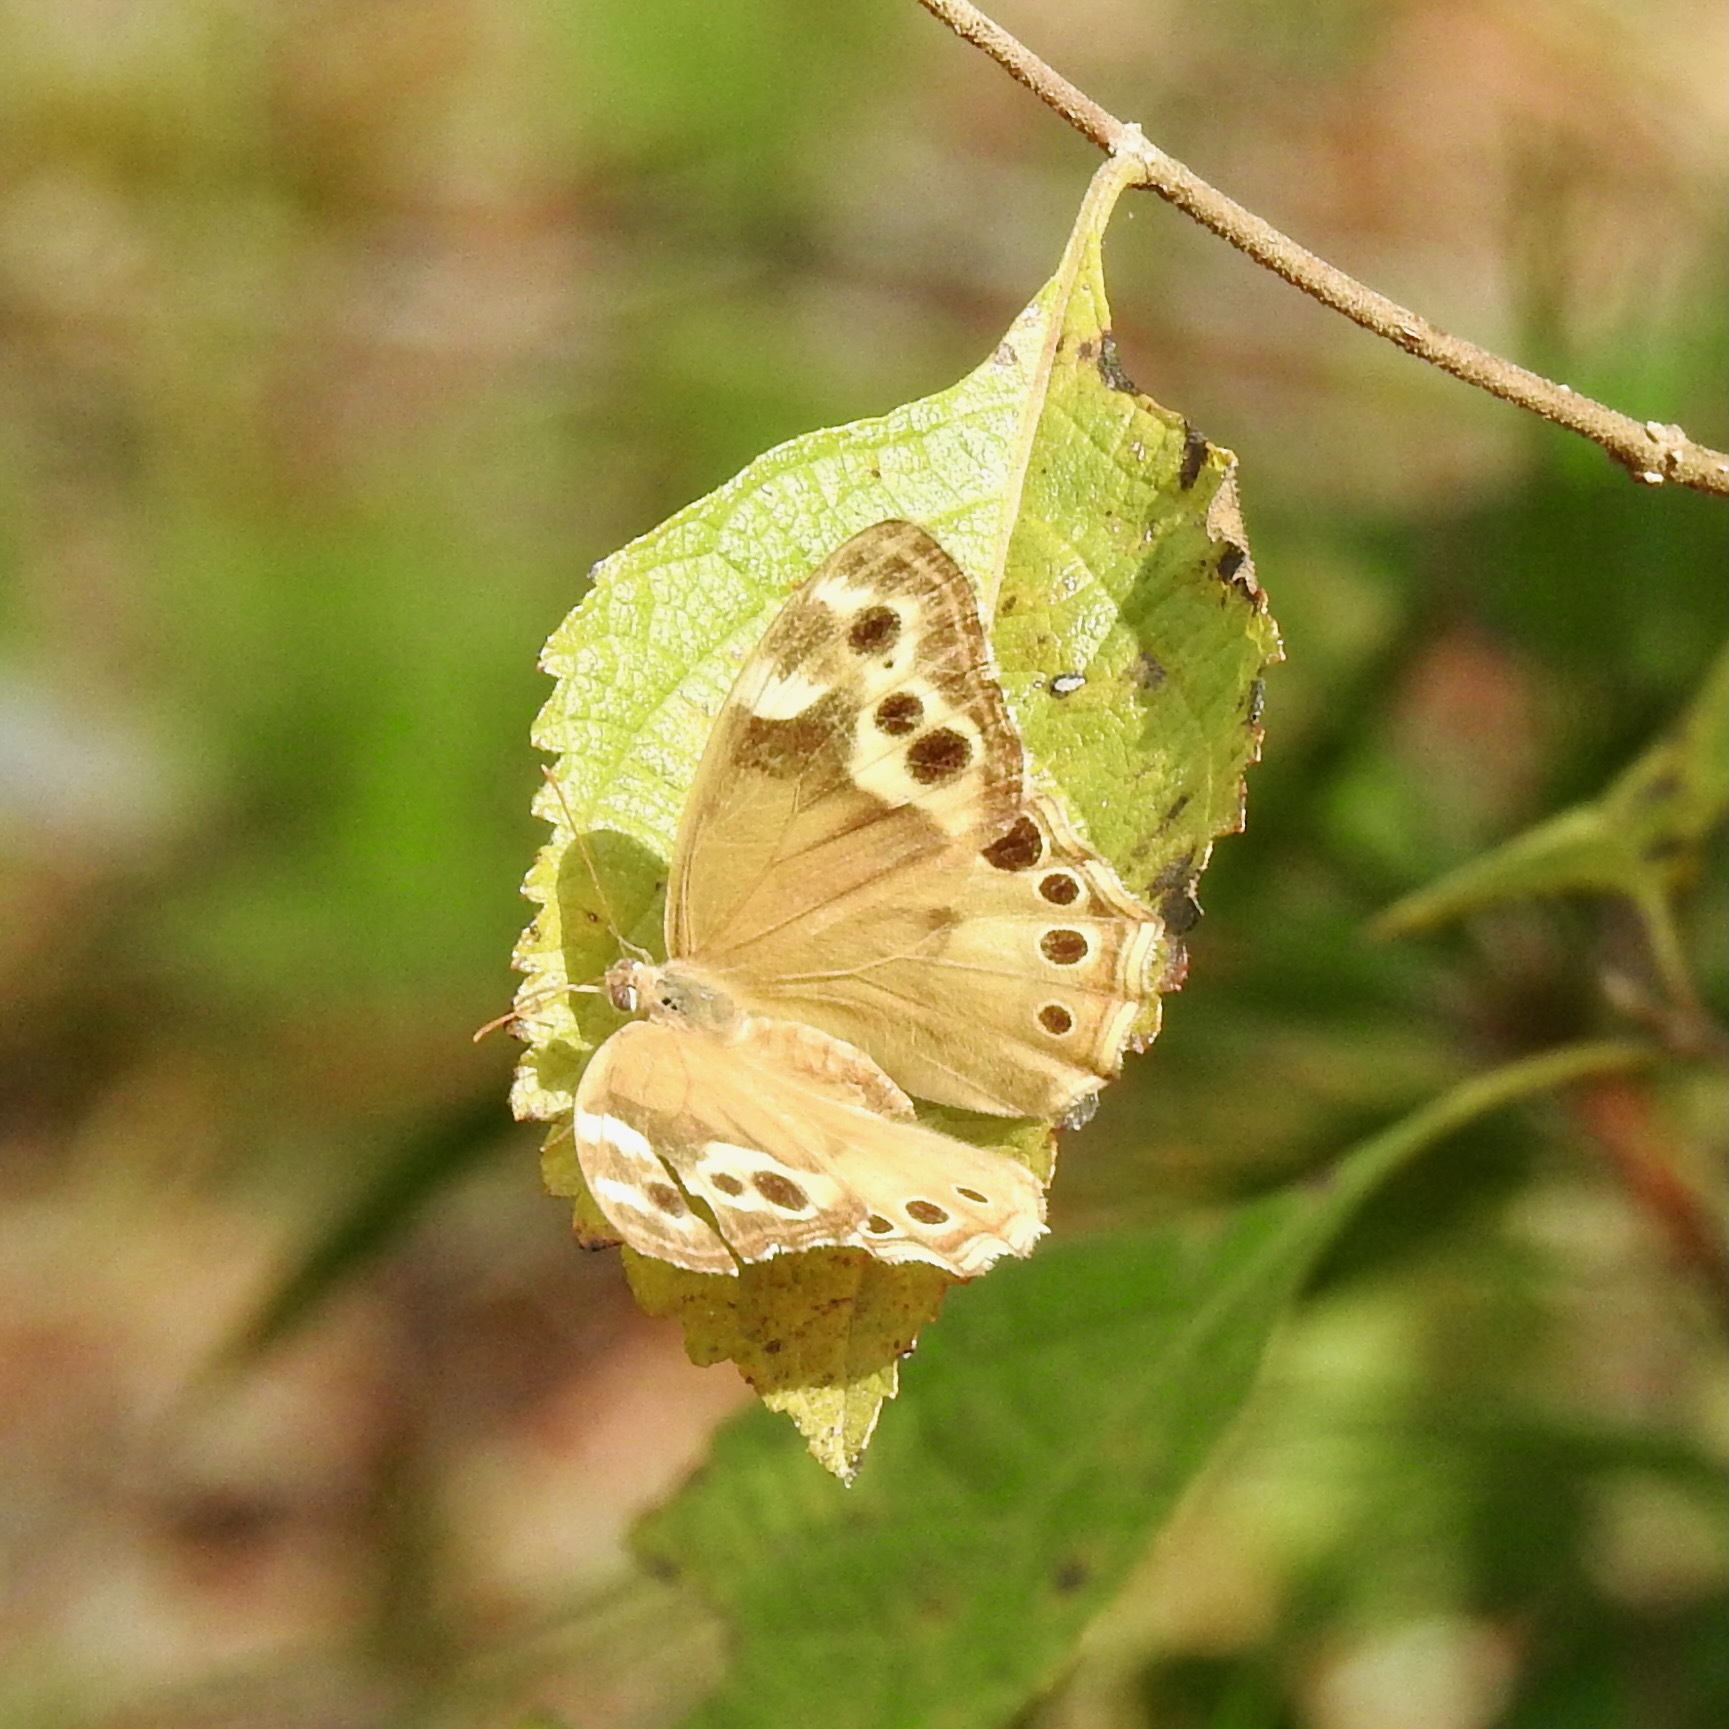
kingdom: Animalia
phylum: Arthropoda
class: Insecta
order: Lepidoptera
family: Nymphalidae
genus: Enodia
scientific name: Enodia portlandia
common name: Southern pearly-eye
